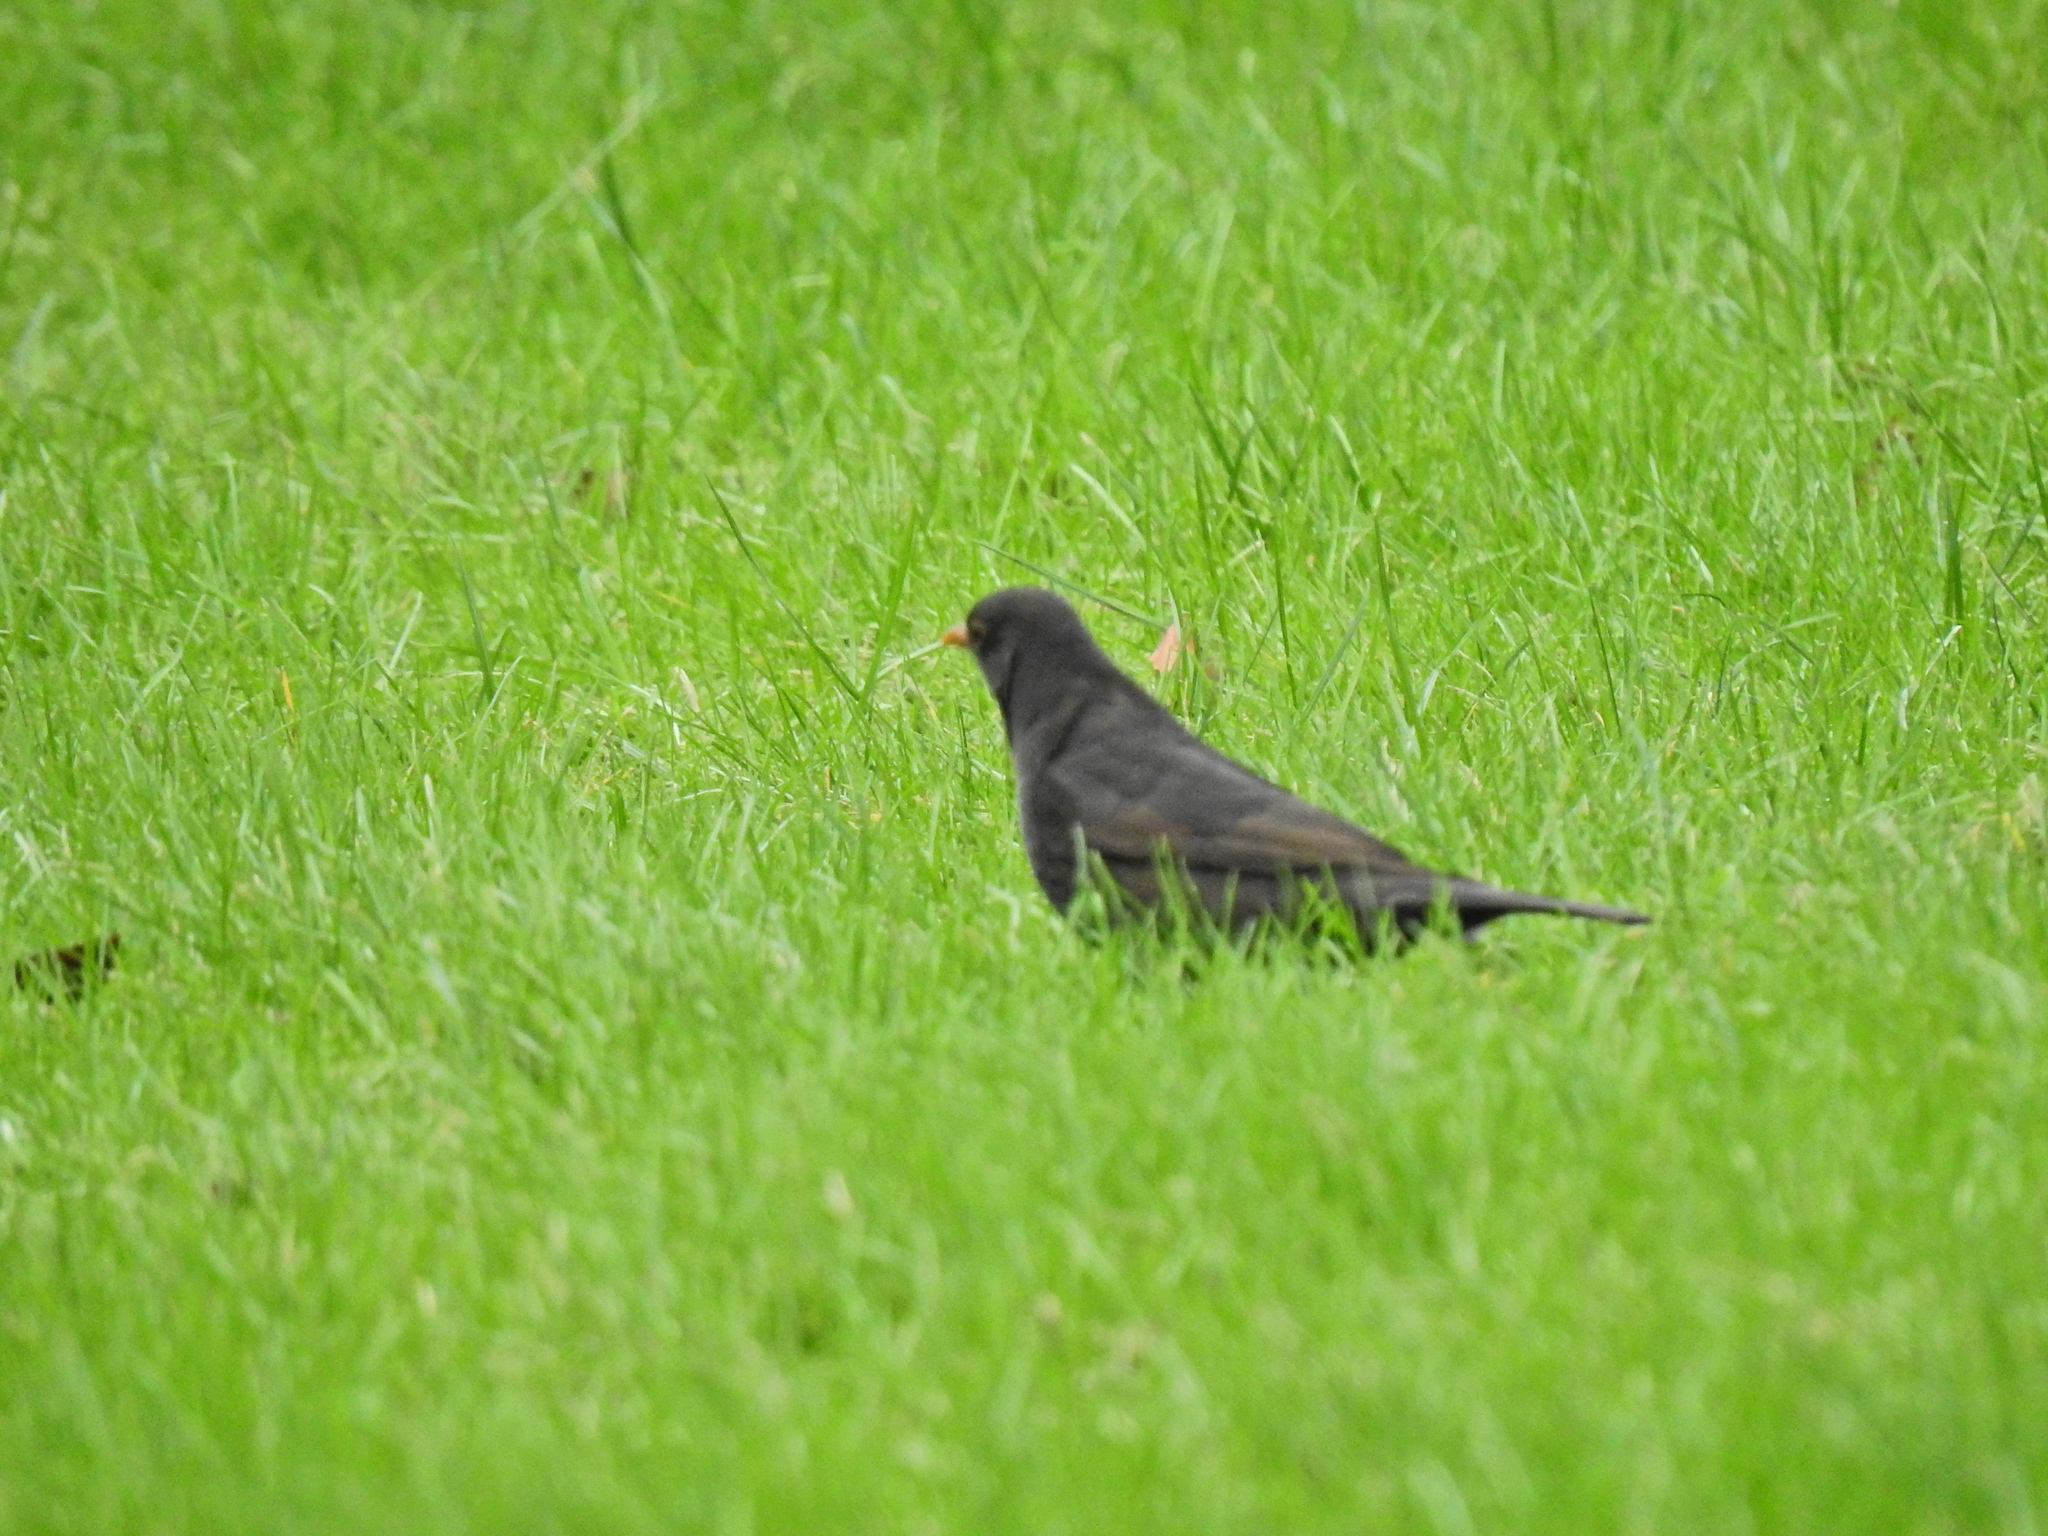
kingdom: Animalia
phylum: Chordata
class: Aves
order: Passeriformes
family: Turdidae
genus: Turdus
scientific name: Turdus merula
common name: Common blackbird
